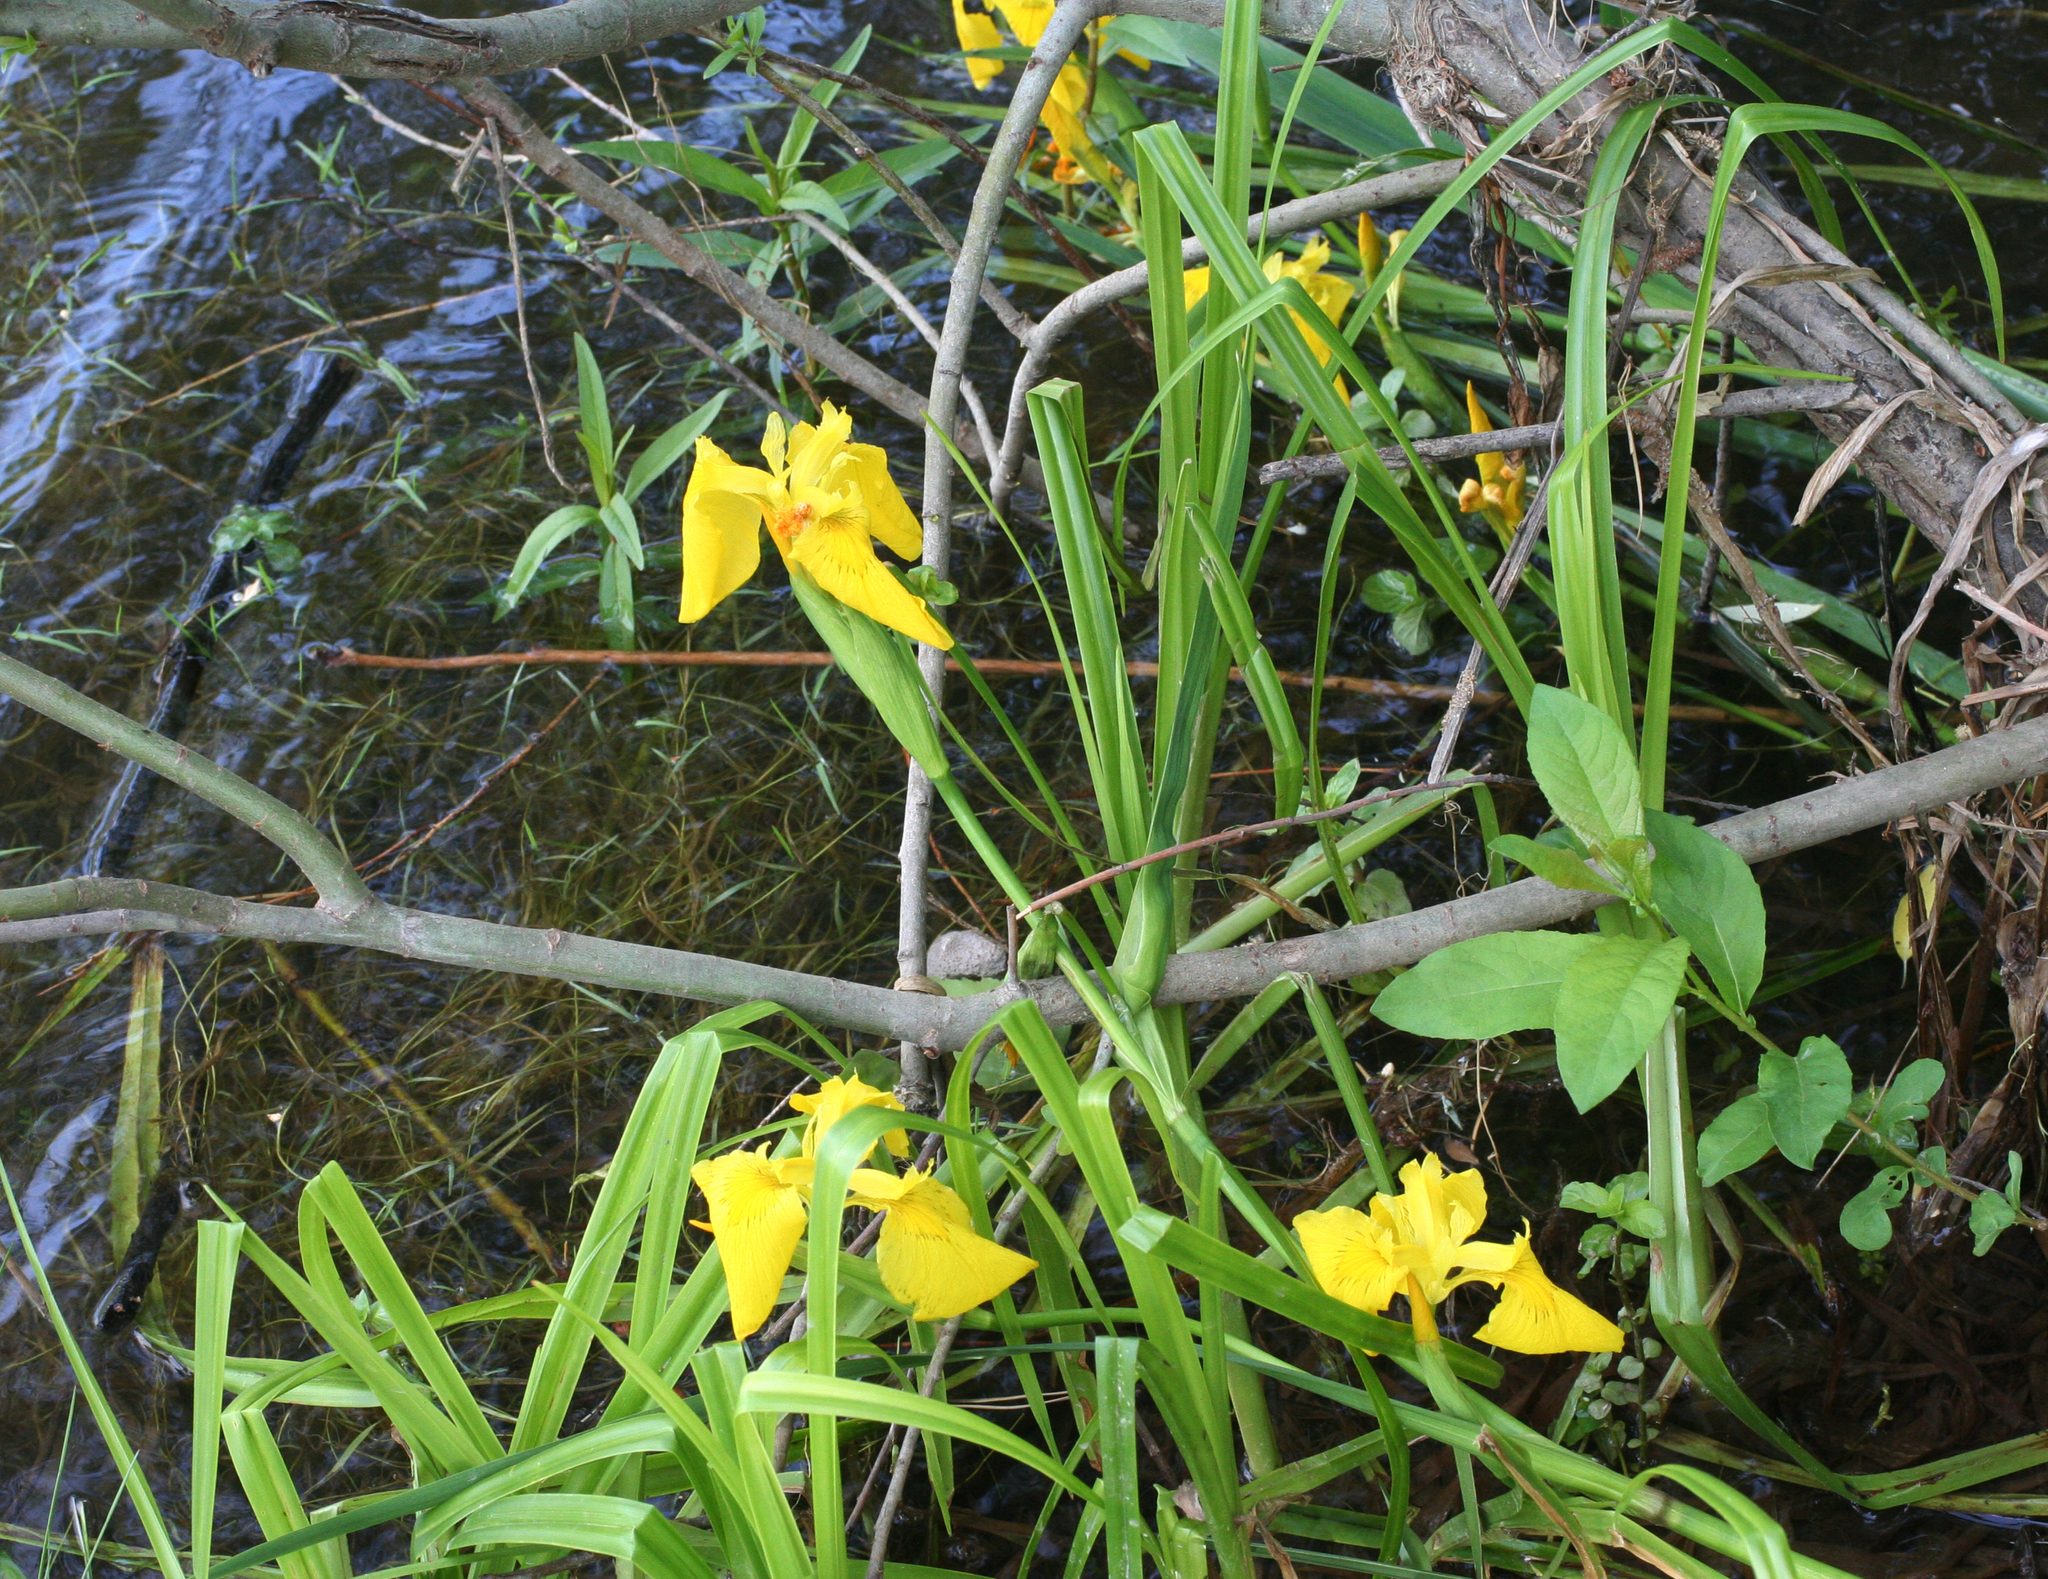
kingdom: Plantae
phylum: Tracheophyta
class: Liliopsida
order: Asparagales
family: Iridaceae
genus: Iris
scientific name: Iris pseudacorus
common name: Yellow flag
